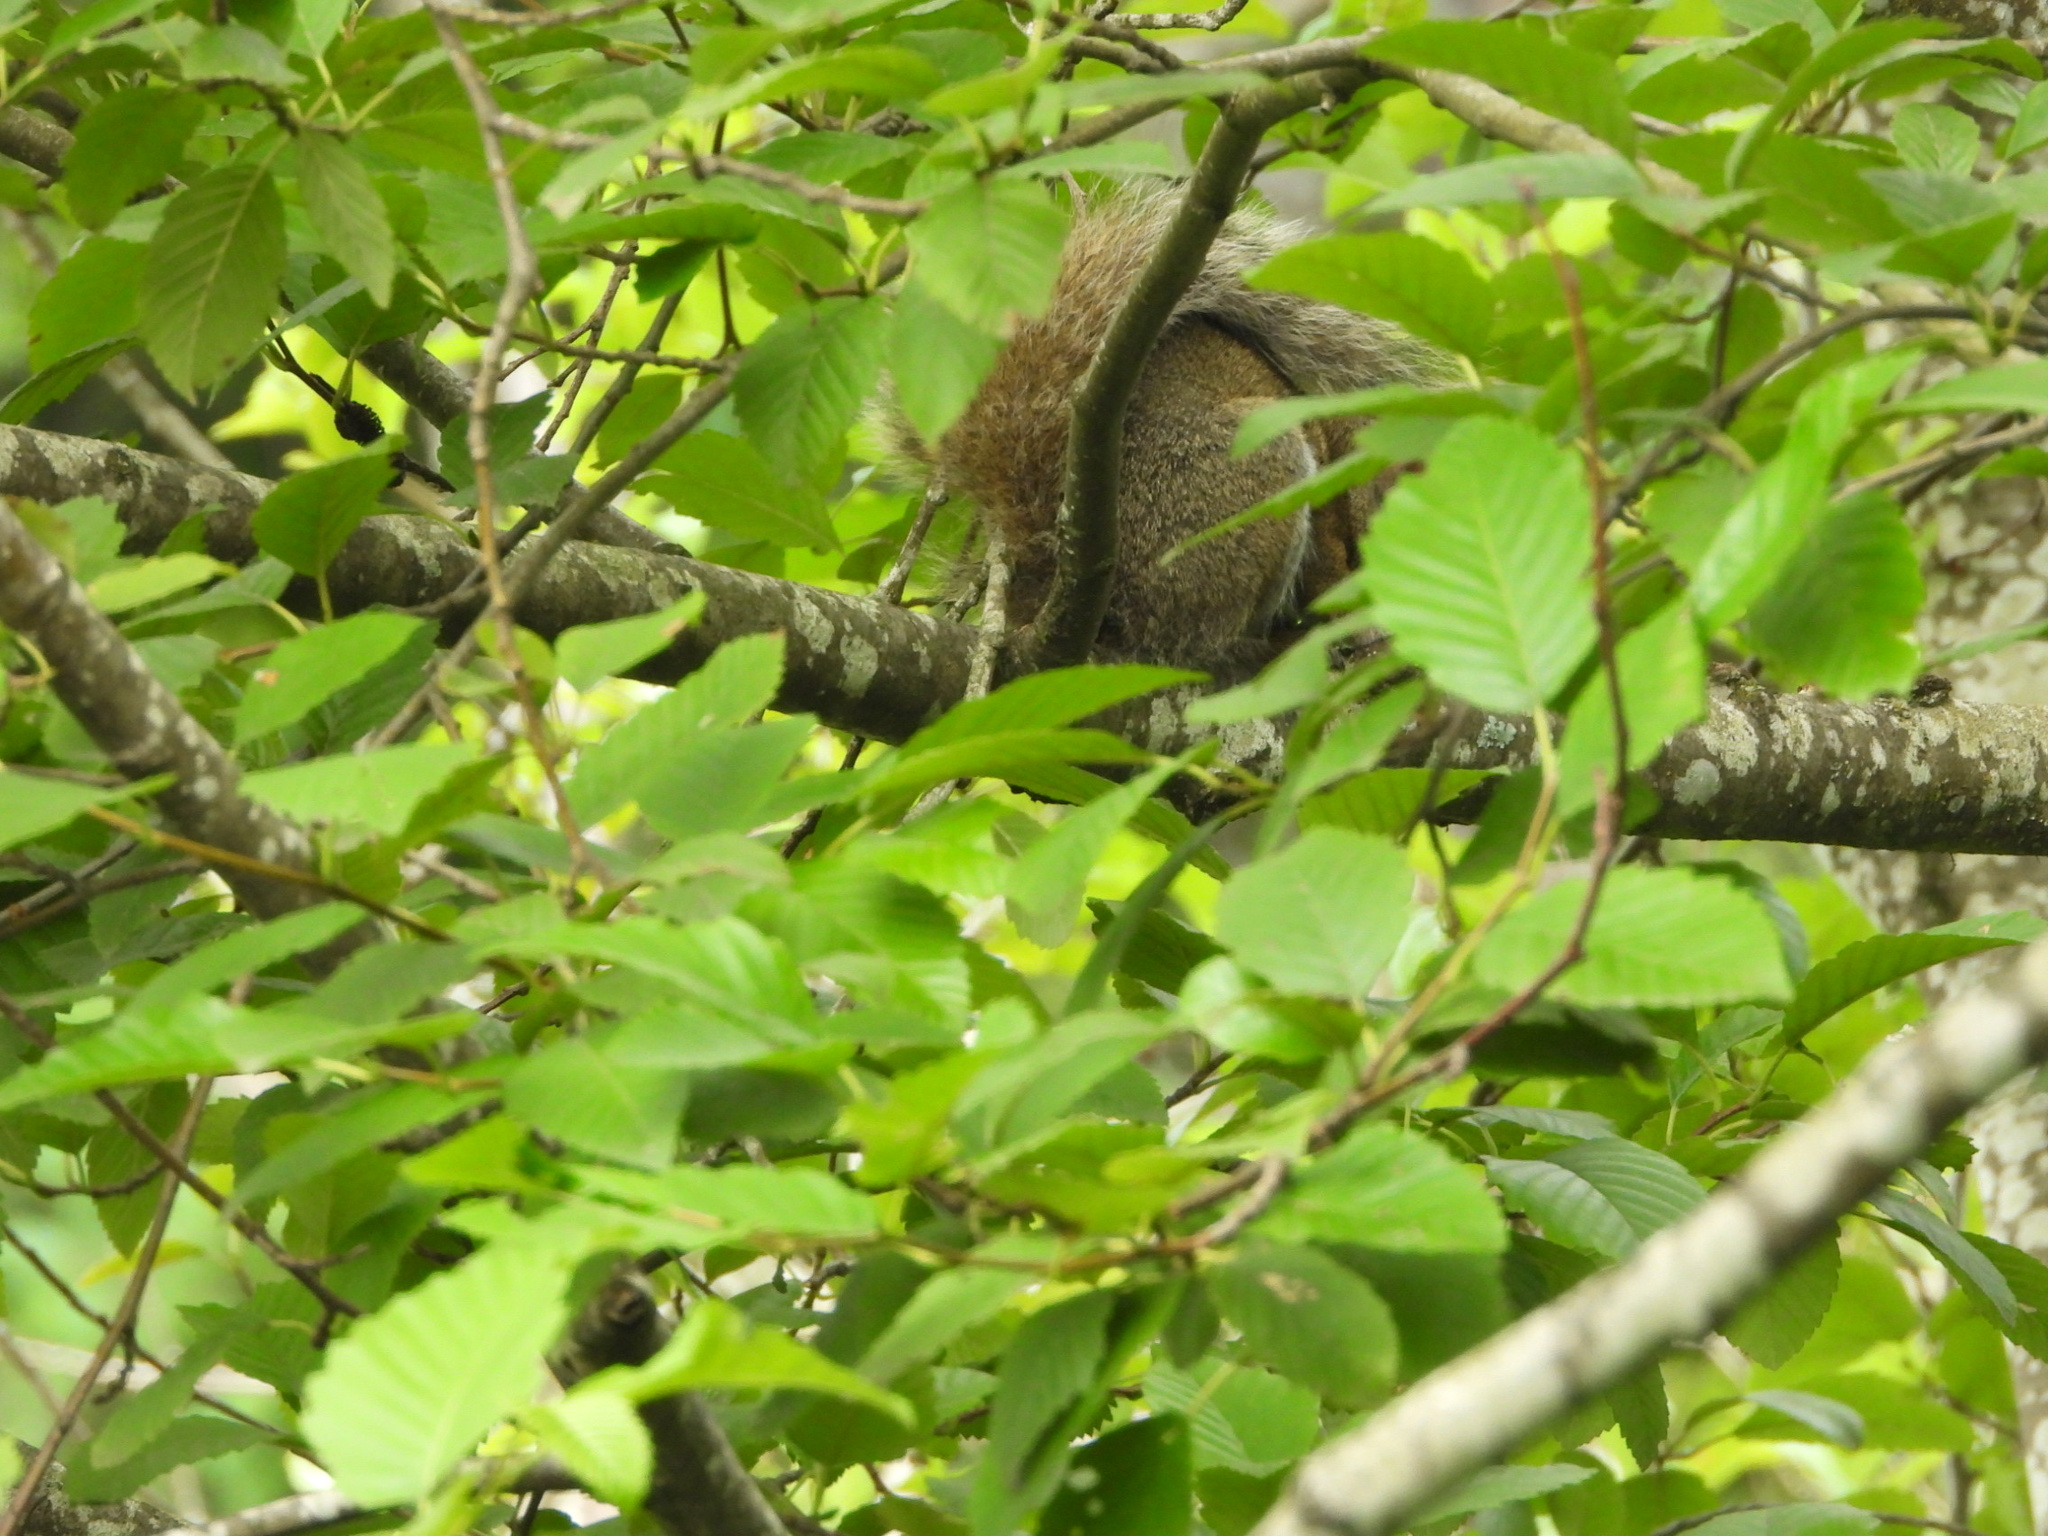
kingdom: Animalia
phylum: Chordata
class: Mammalia
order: Rodentia
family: Sciuridae
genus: Sciurus
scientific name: Sciurus carolinensis
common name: Eastern gray squirrel
